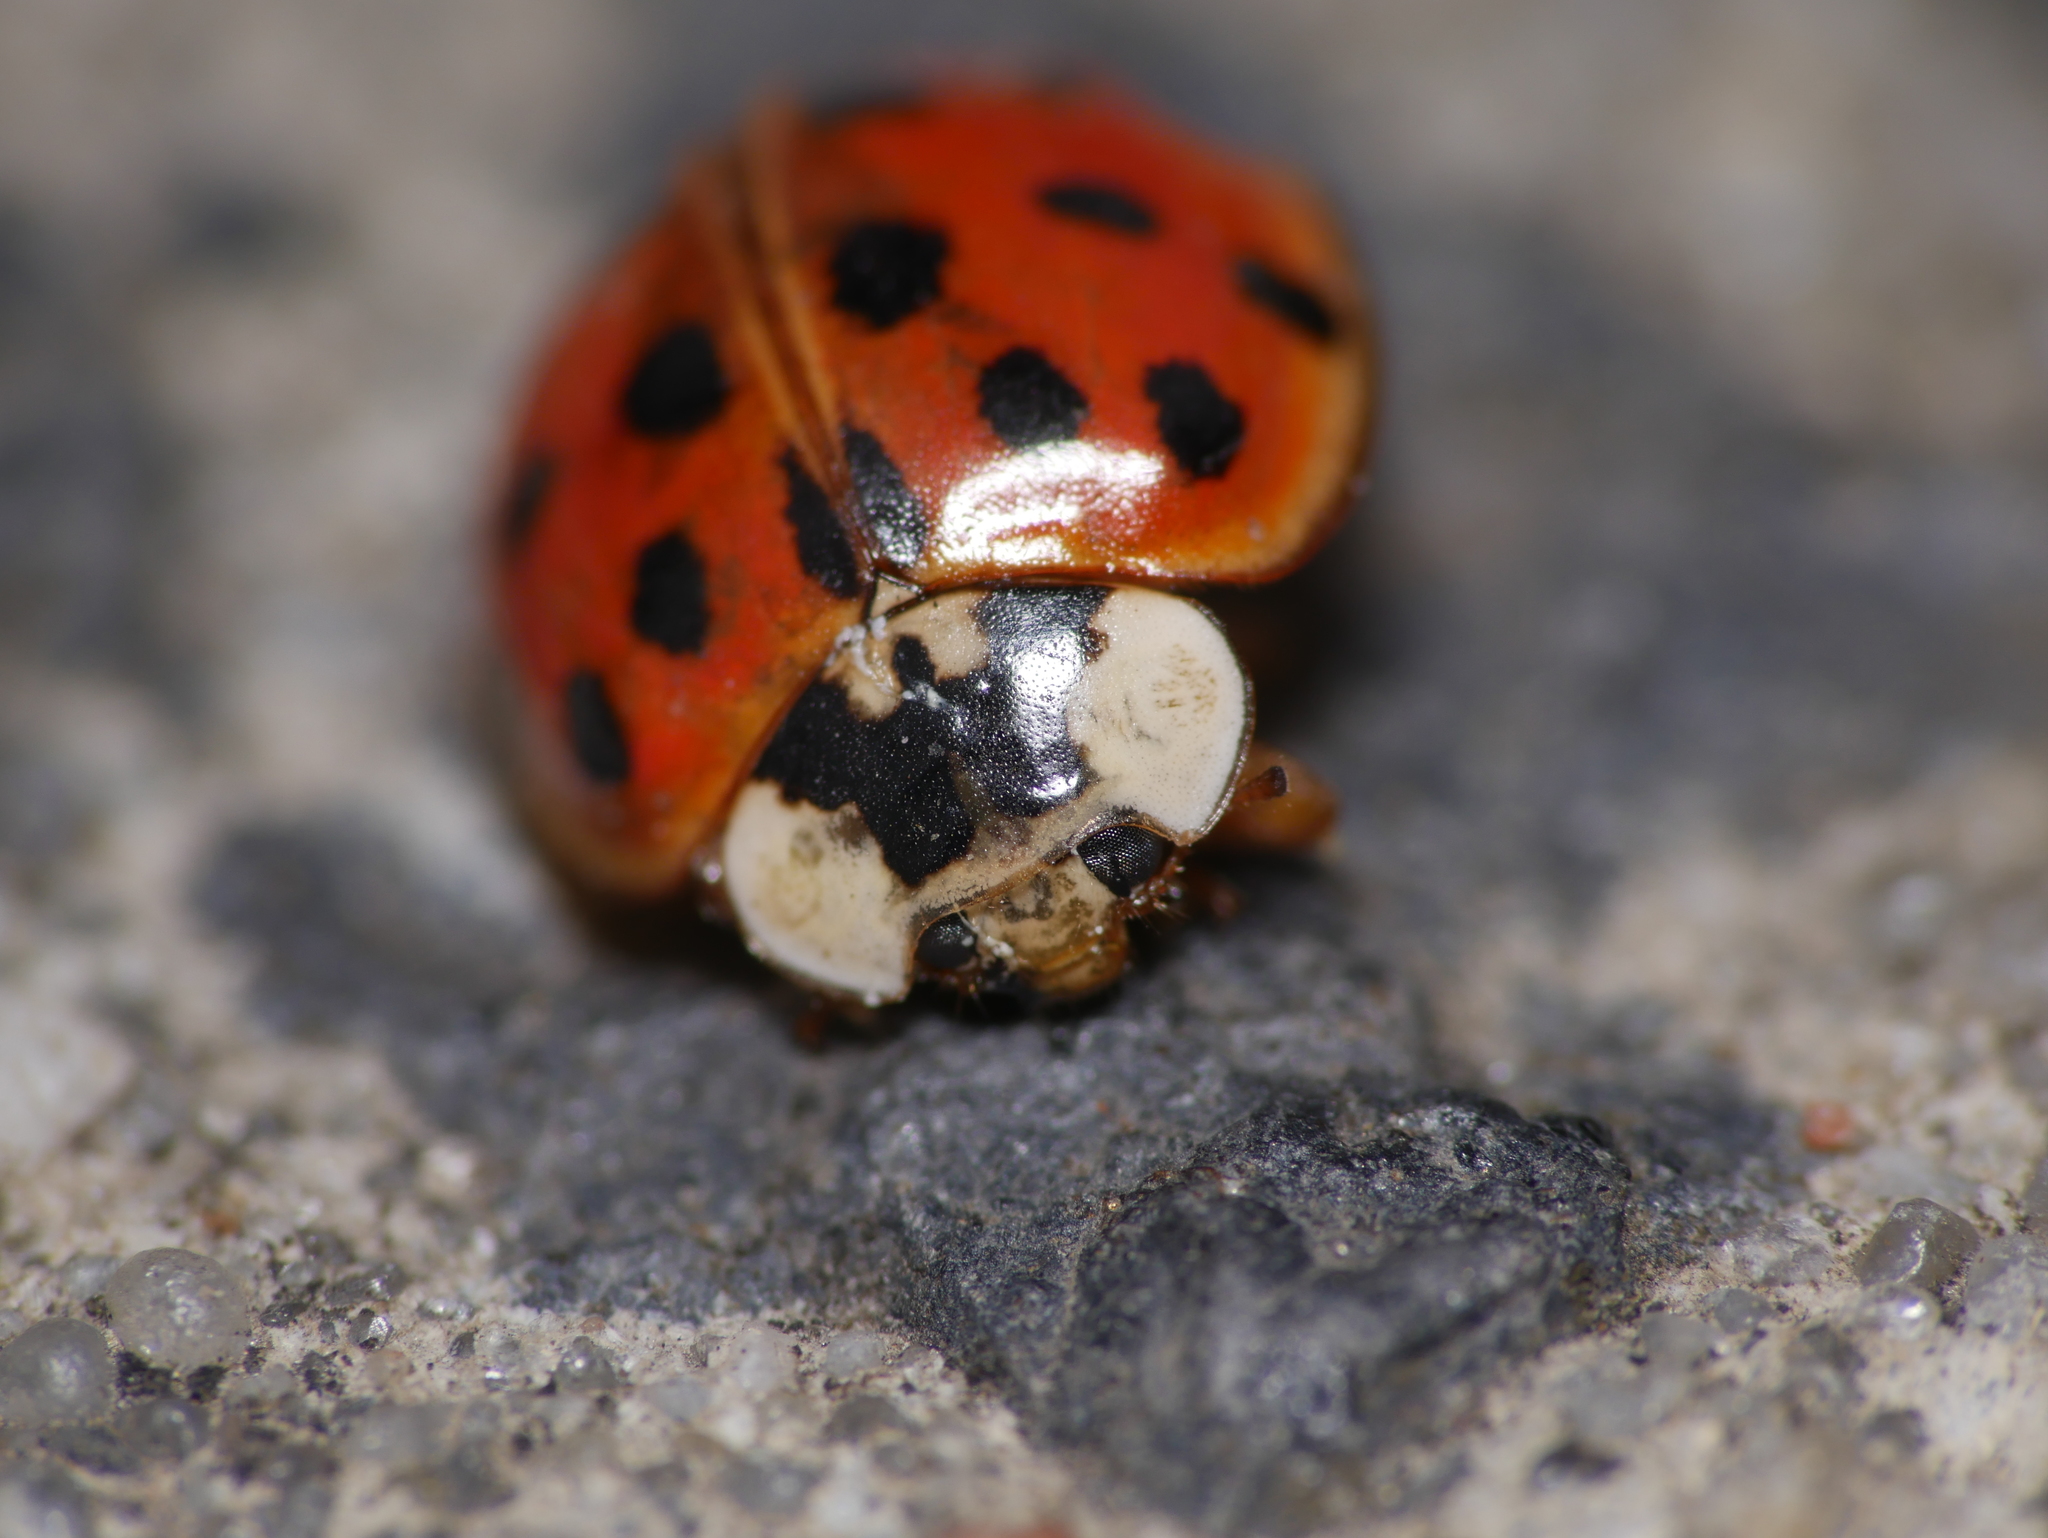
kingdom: Animalia
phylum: Arthropoda
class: Insecta
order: Coleoptera
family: Coccinellidae
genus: Harmonia
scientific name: Harmonia axyridis
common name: Harlequin ladybird
